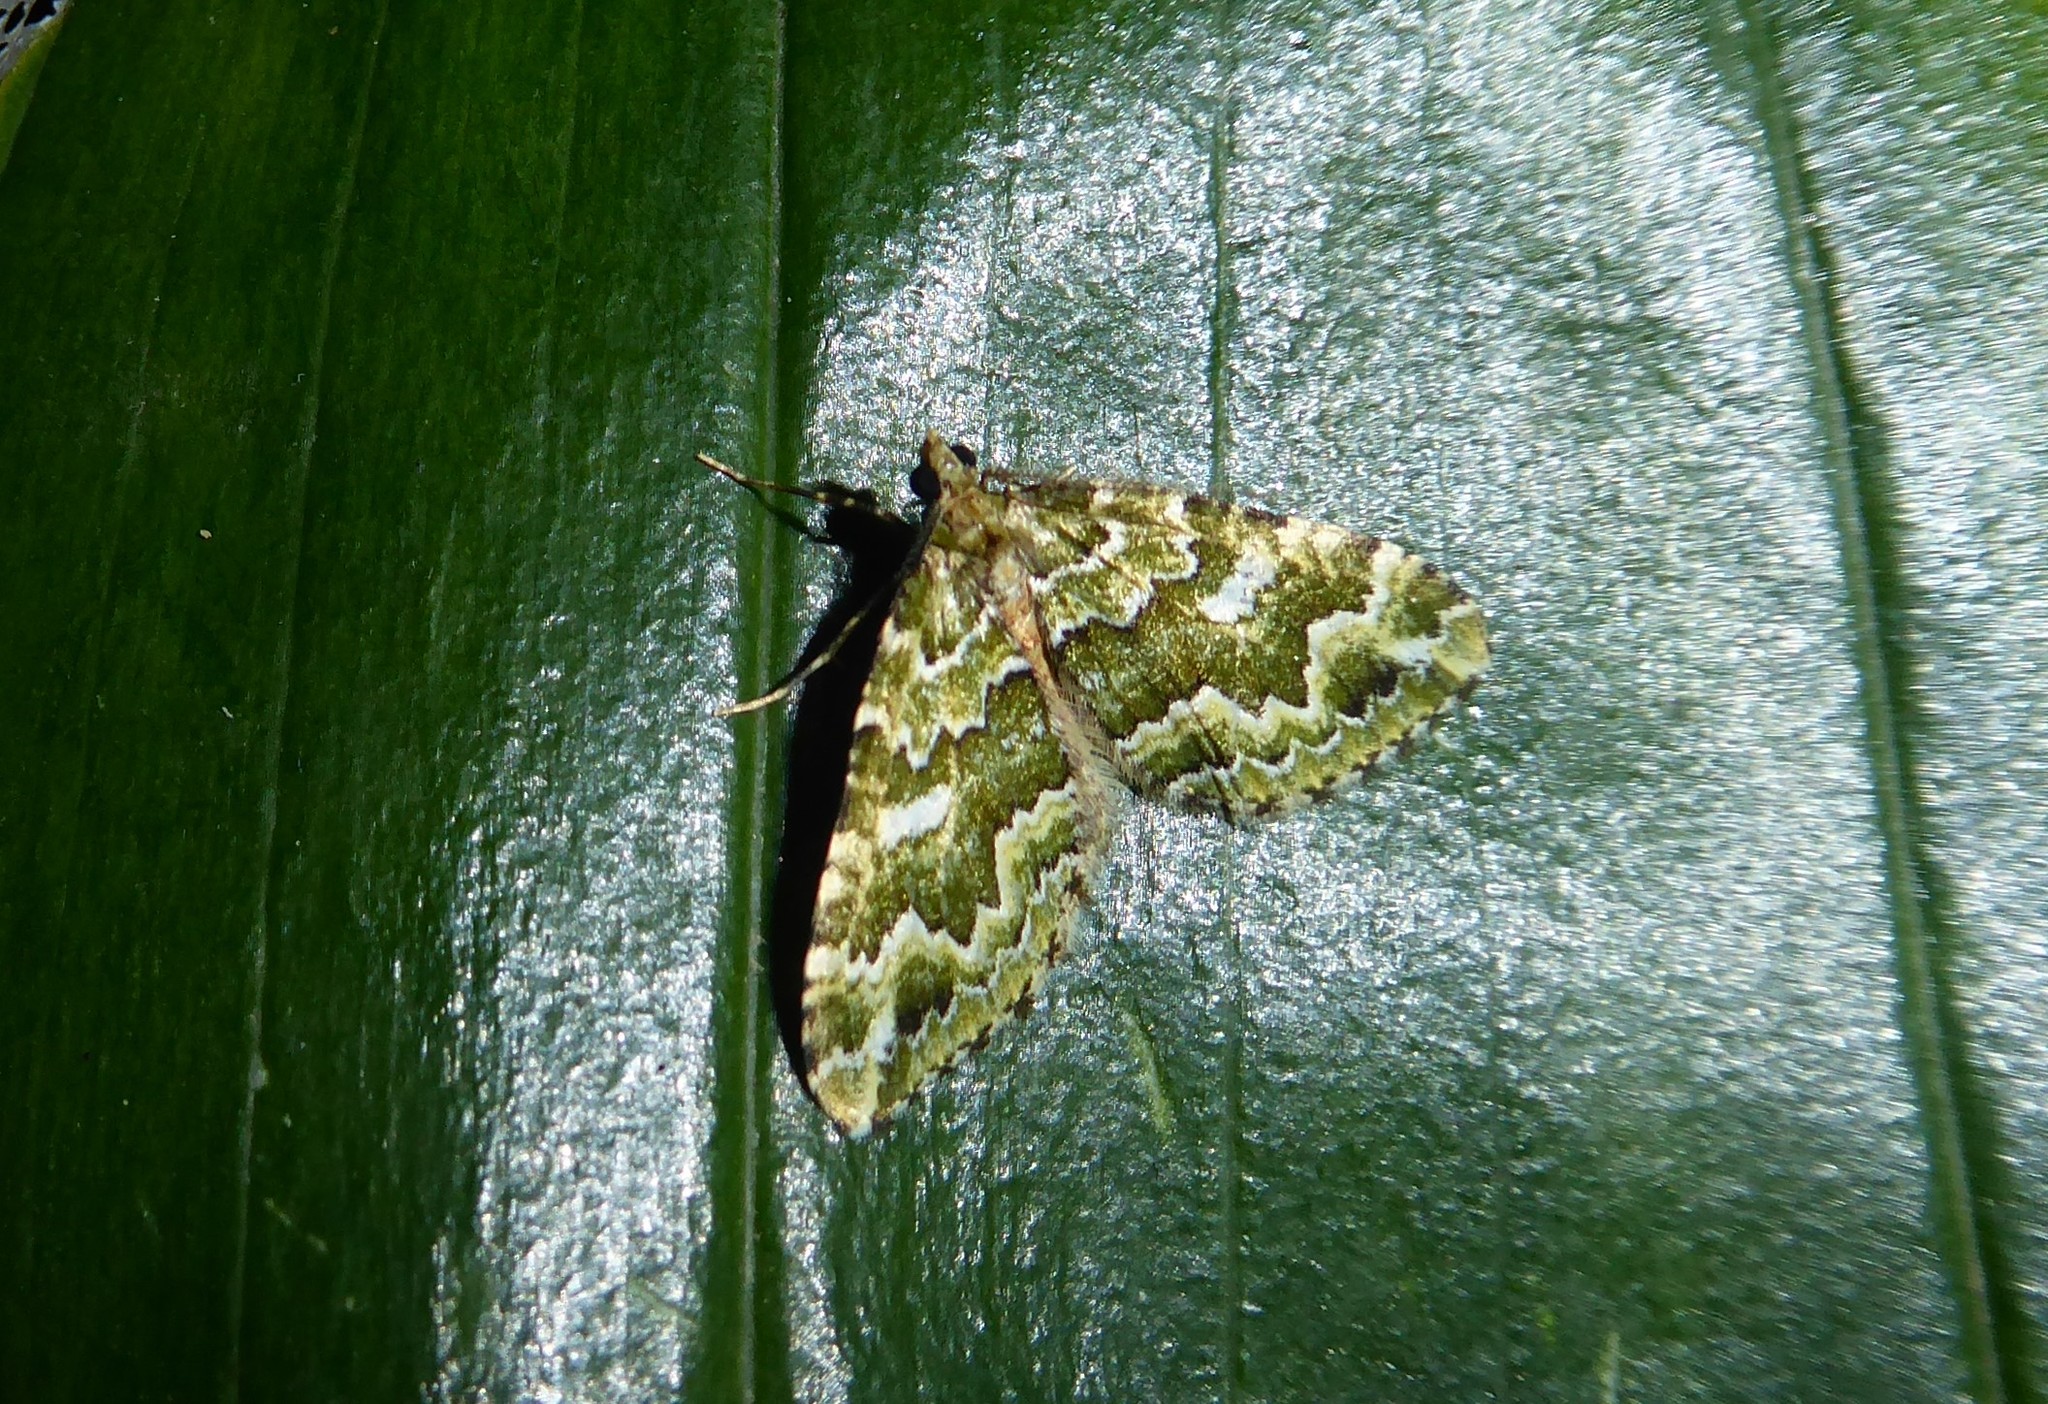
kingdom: Animalia
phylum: Arthropoda
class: Insecta
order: Lepidoptera
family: Geometridae
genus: Asaphodes
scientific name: Asaphodes beata
